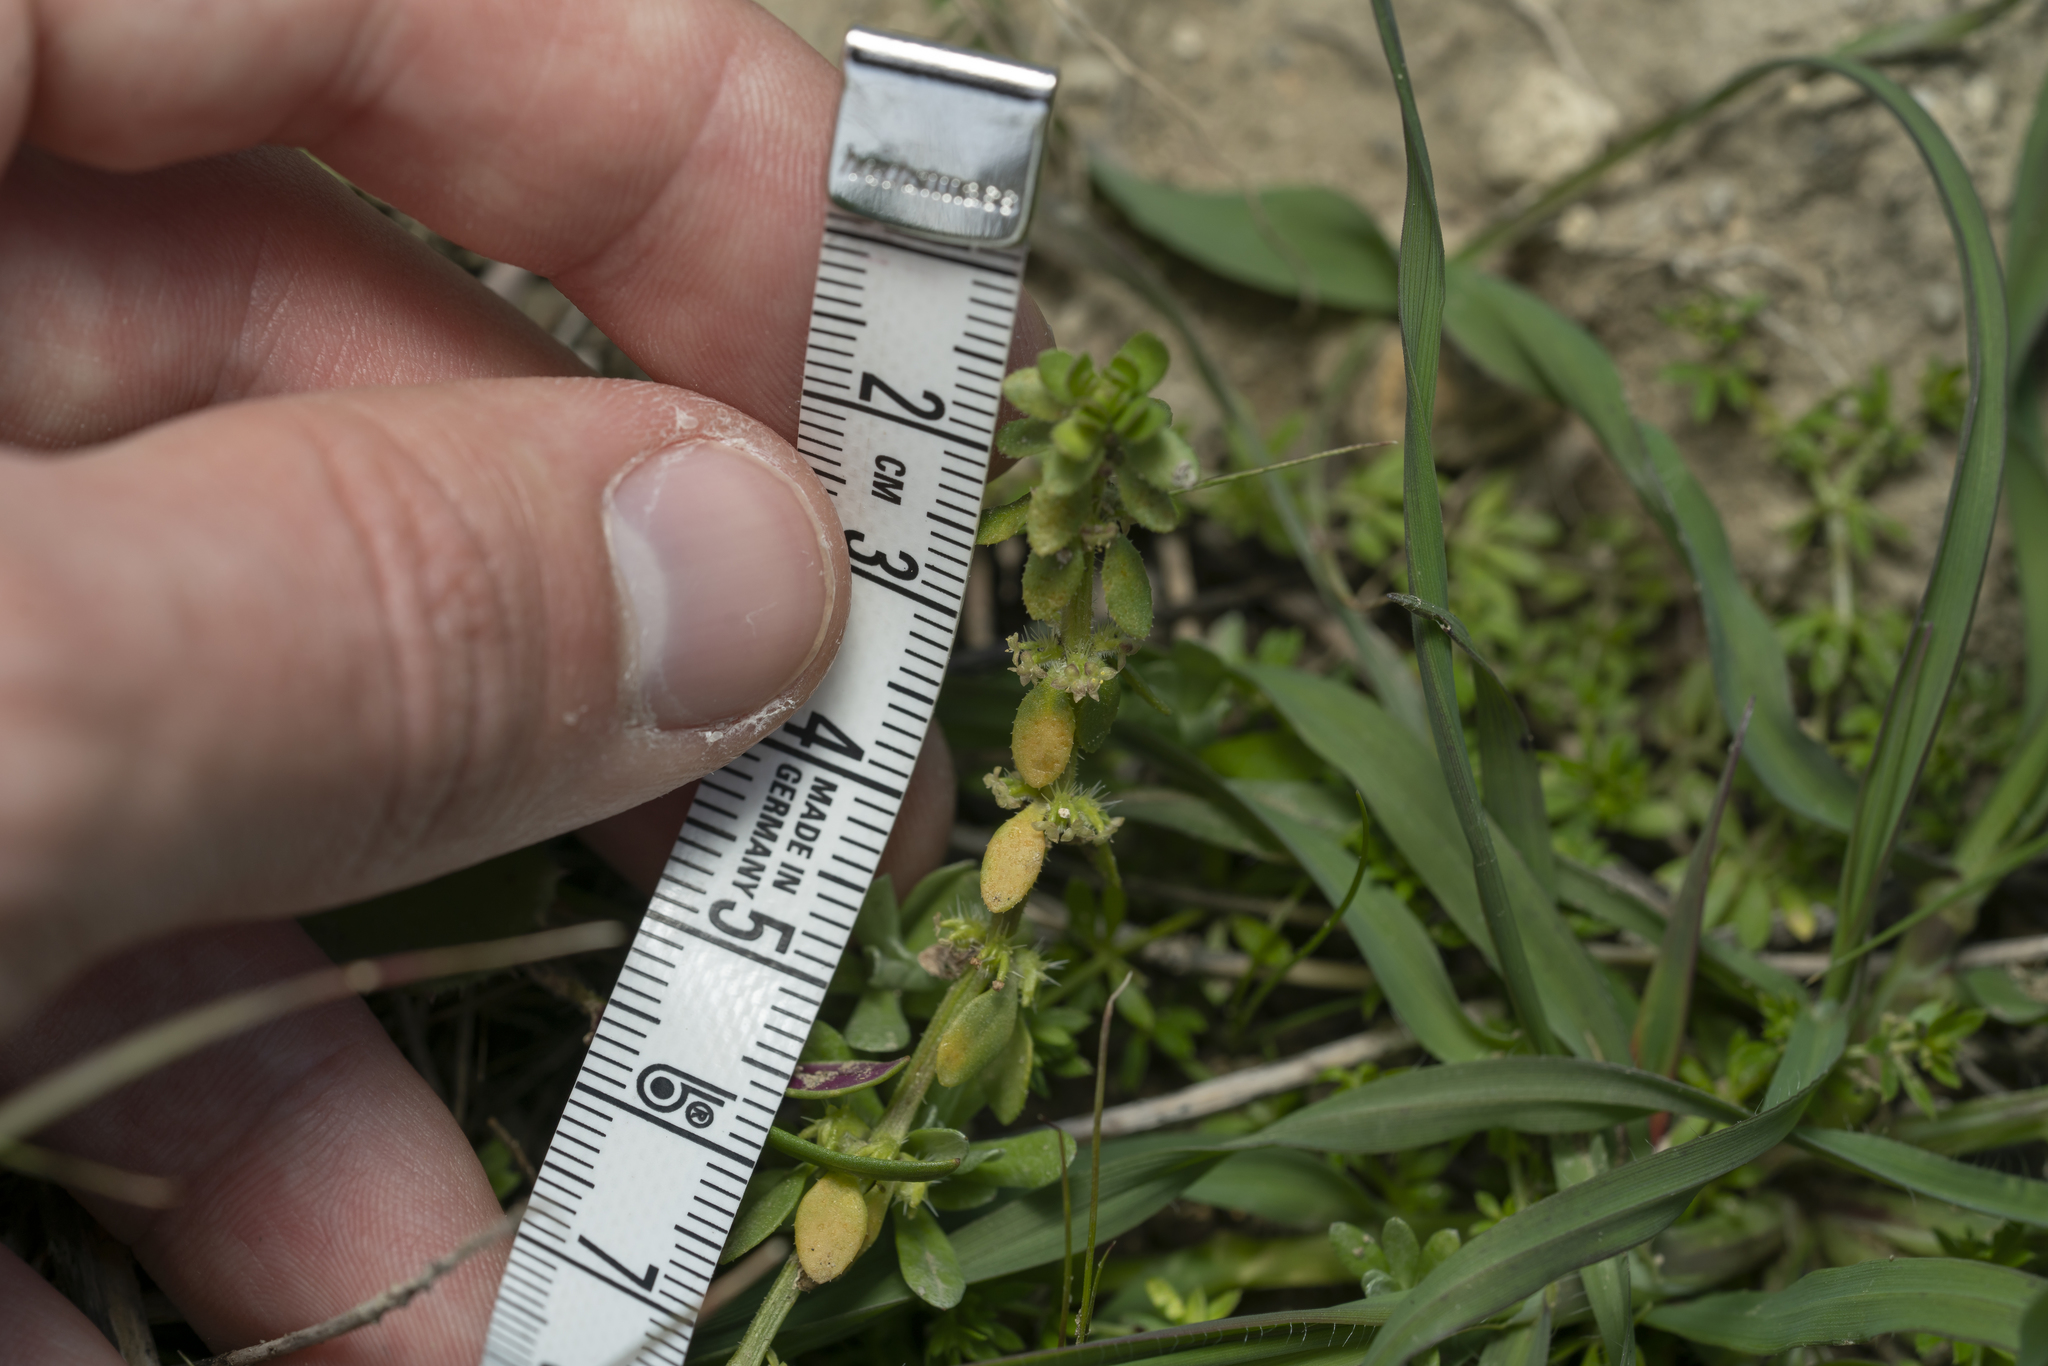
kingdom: Plantae
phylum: Tracheophyta
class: Magnoliopsida
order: Gentianales
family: Rubiaceae
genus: Valantia
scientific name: Valantia hispida
